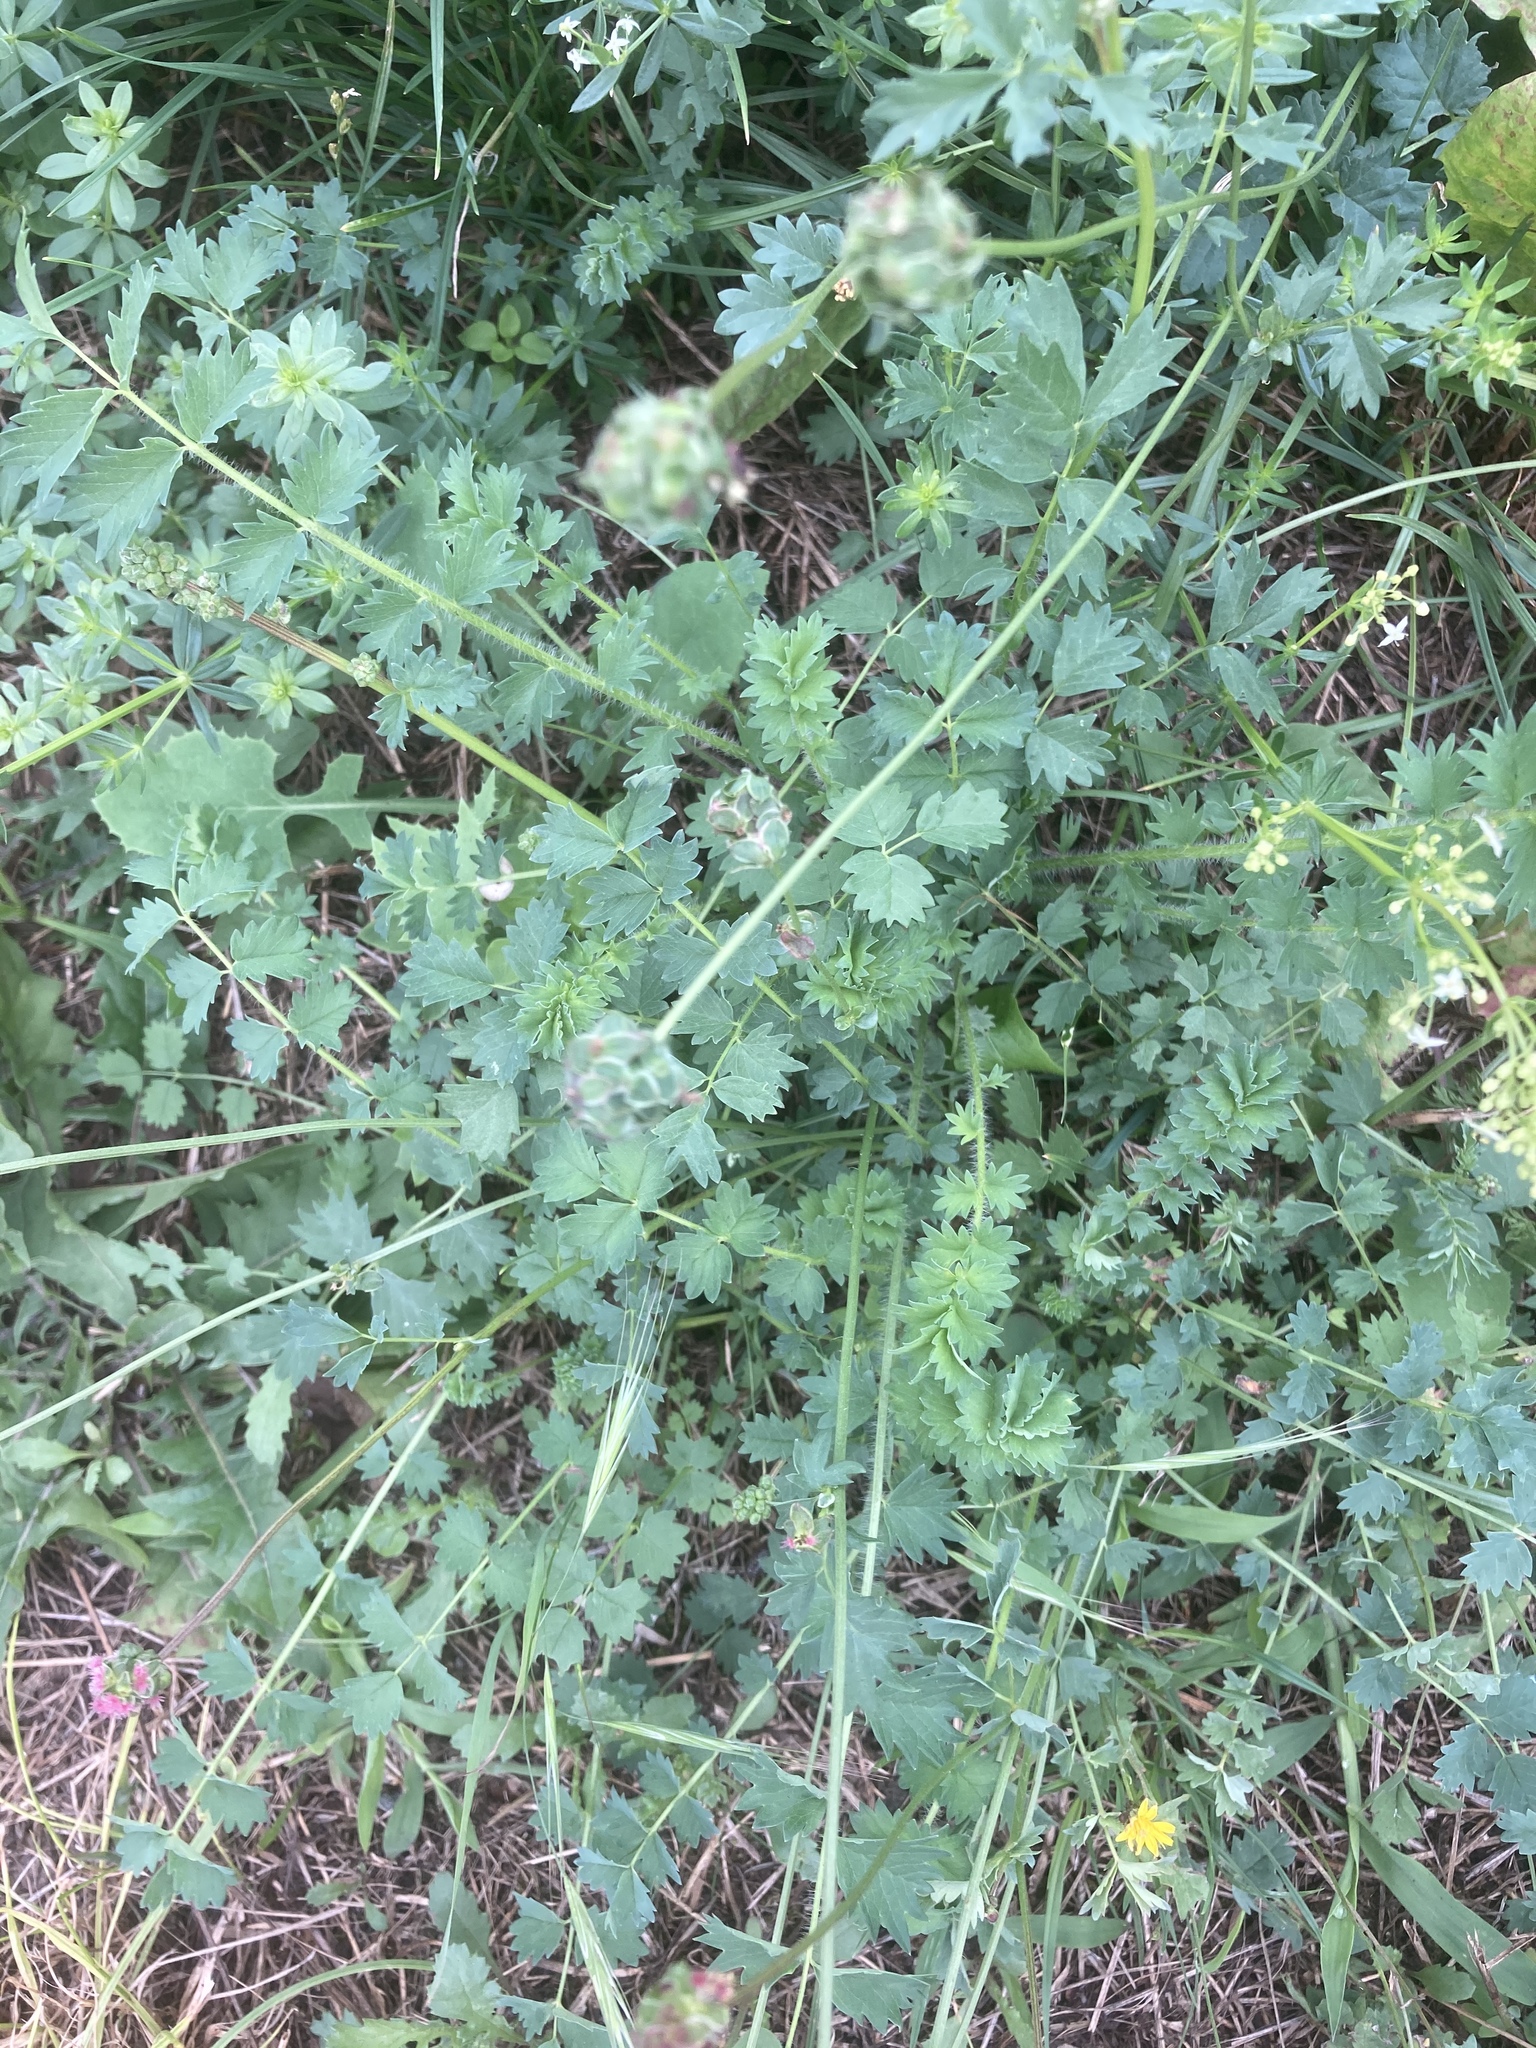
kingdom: Plantae
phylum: Tracheophyta
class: Magnoliopsida
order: Rosales
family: Rosaceae
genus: Poterium
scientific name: Poterium sanguisorba
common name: Salad burnet
